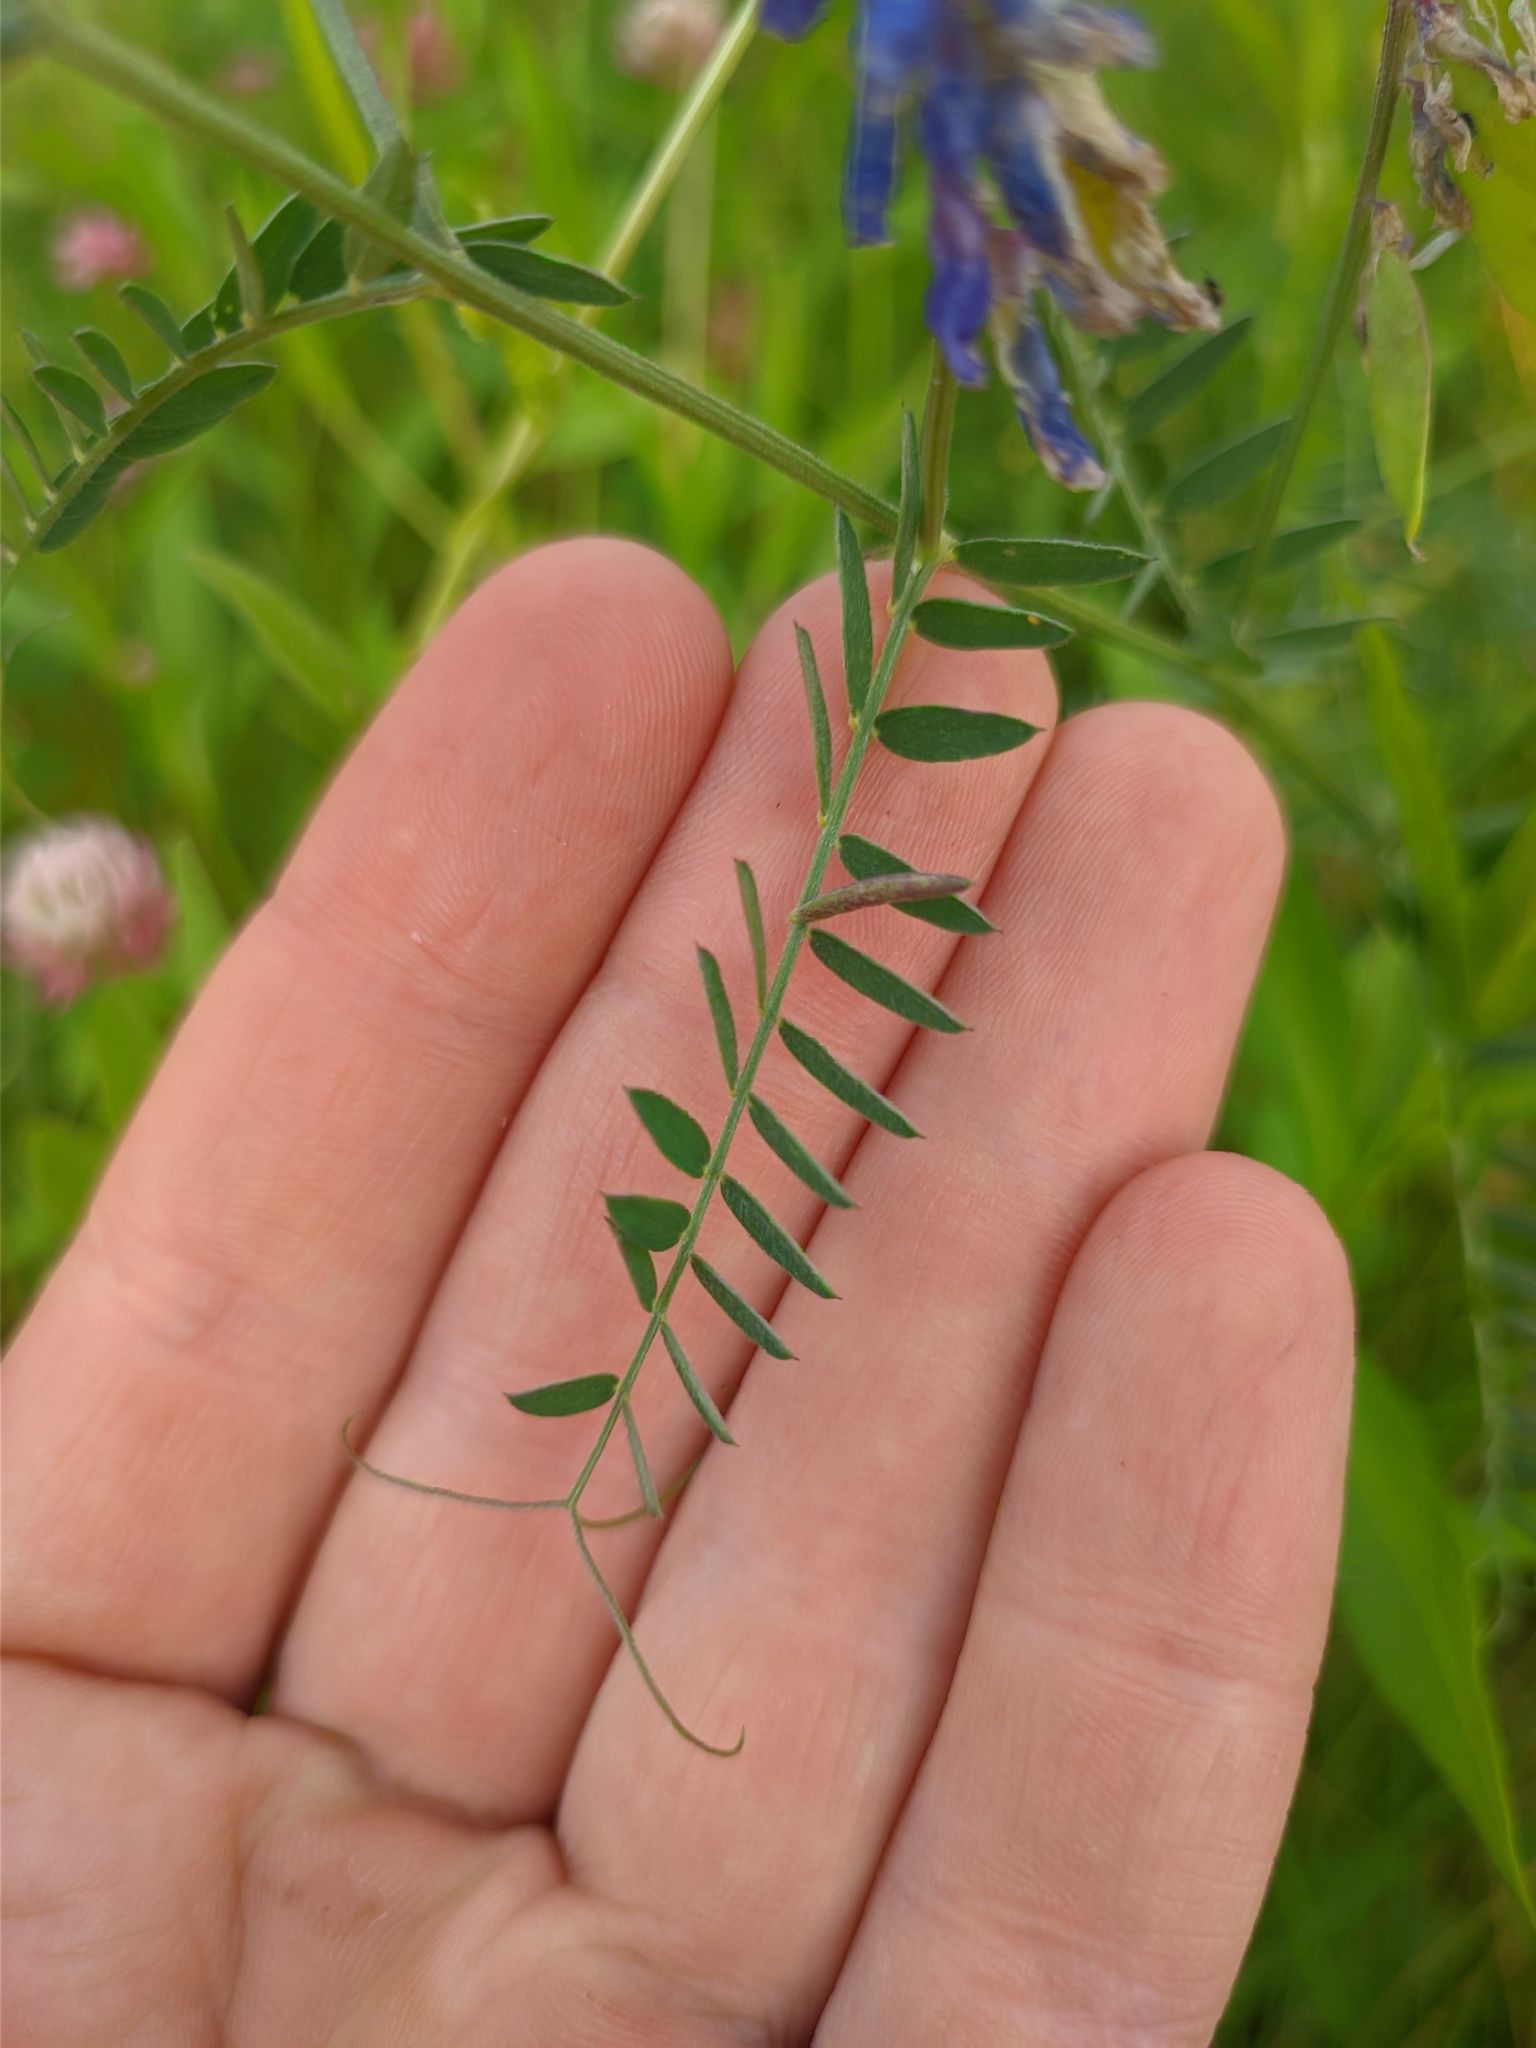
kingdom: Plantae
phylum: Tracheophyta
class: Magnoliopsida
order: Fabales
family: Fabaceae
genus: Vicia
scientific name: Vicia cracca
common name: Bird vetch
